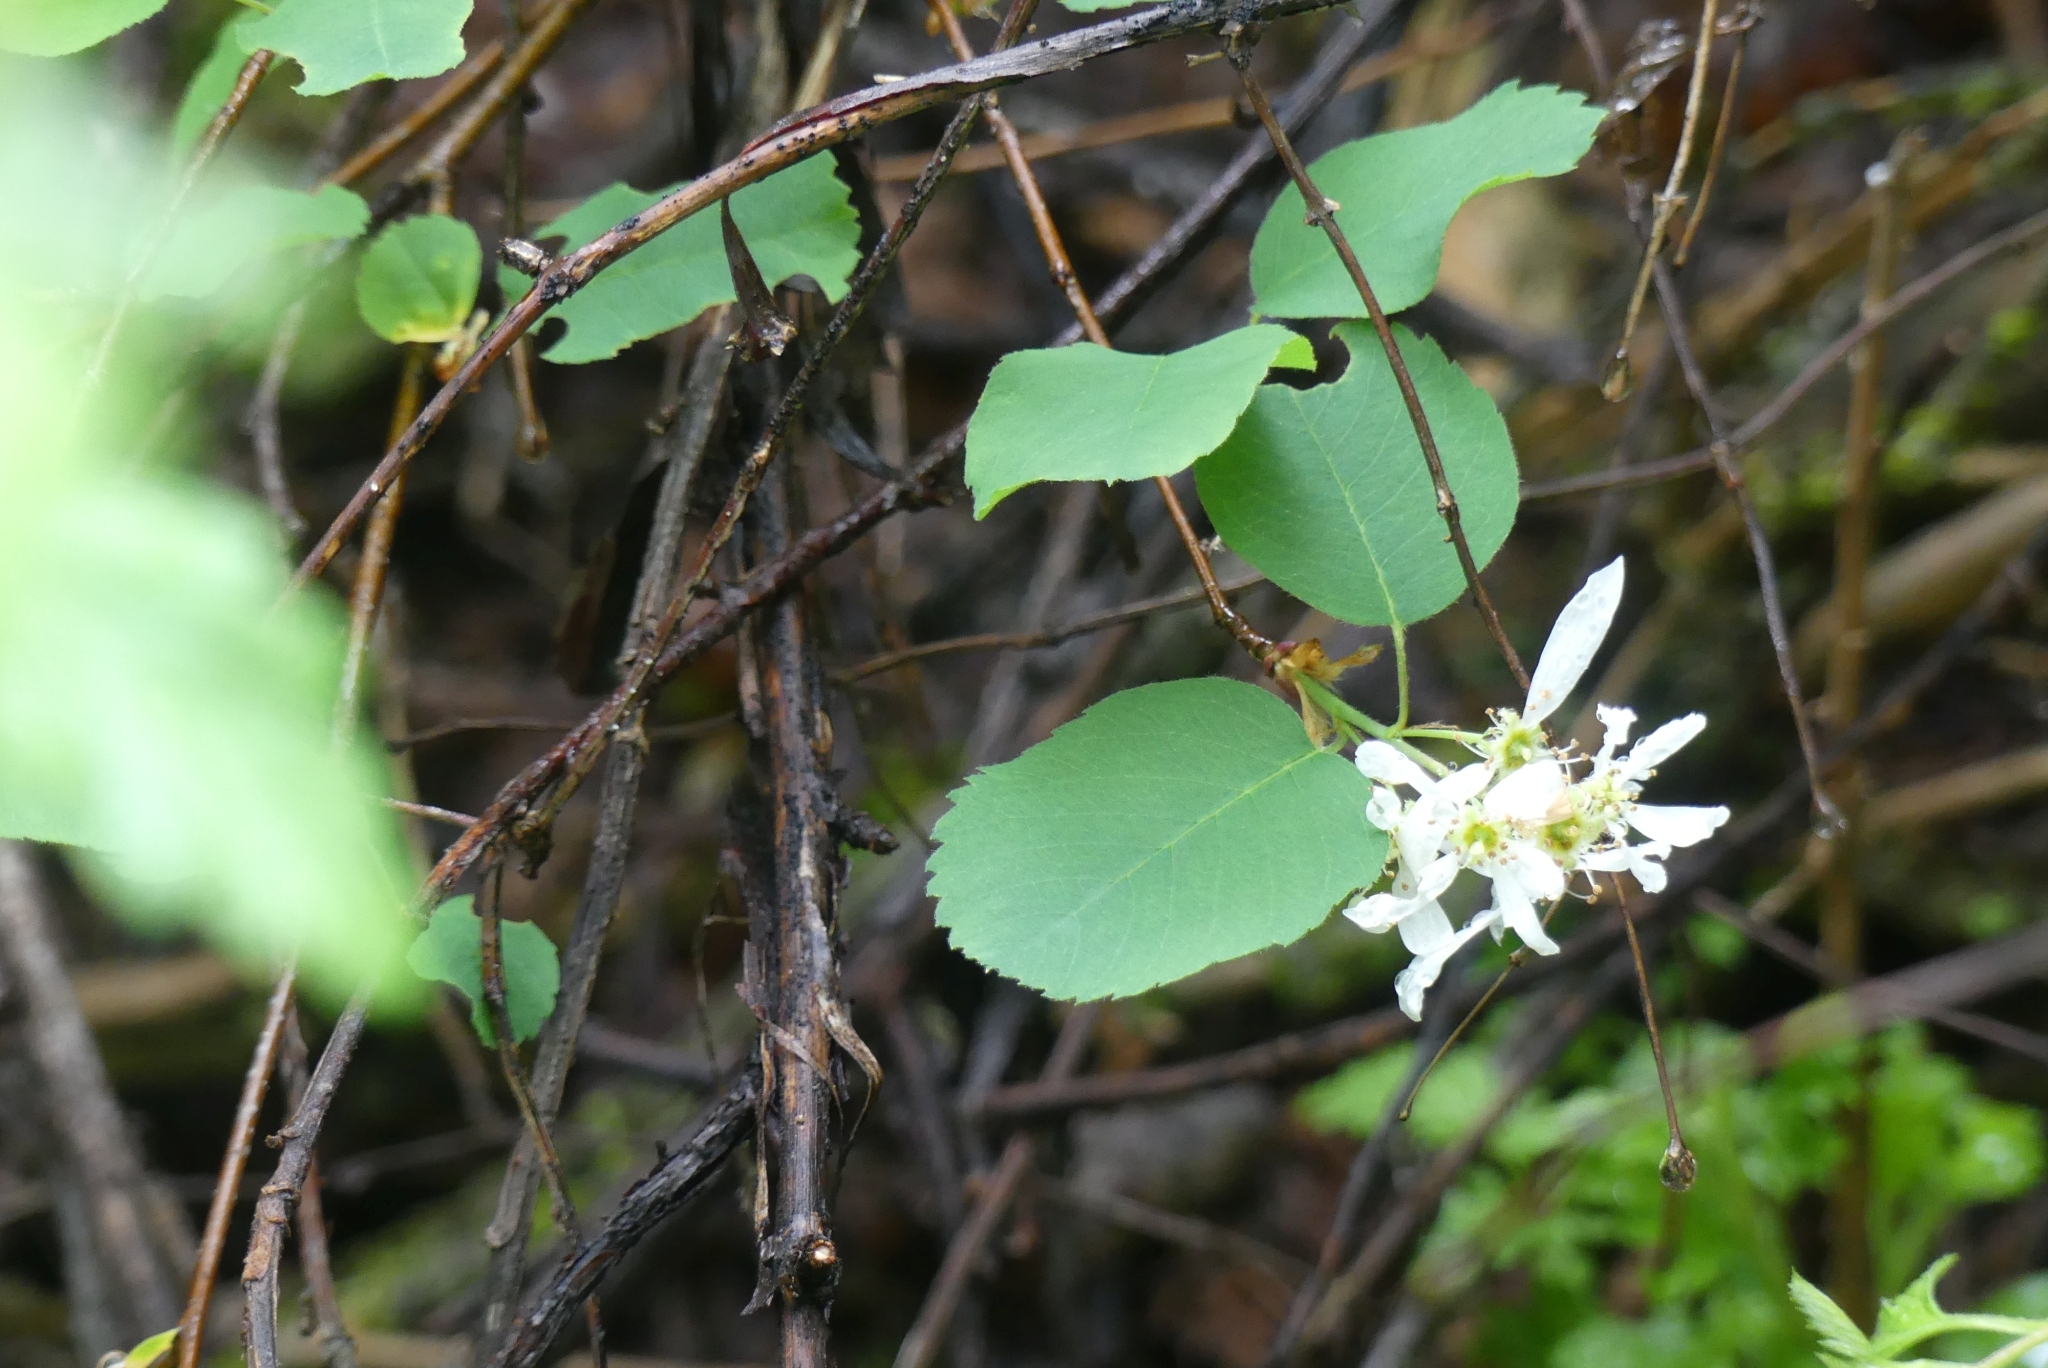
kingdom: Plantae
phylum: Tracheophyta
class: Magnoliopsida
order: Rosales
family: Rosaceae
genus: Amelanchier
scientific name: Amelanchier alnifolia
